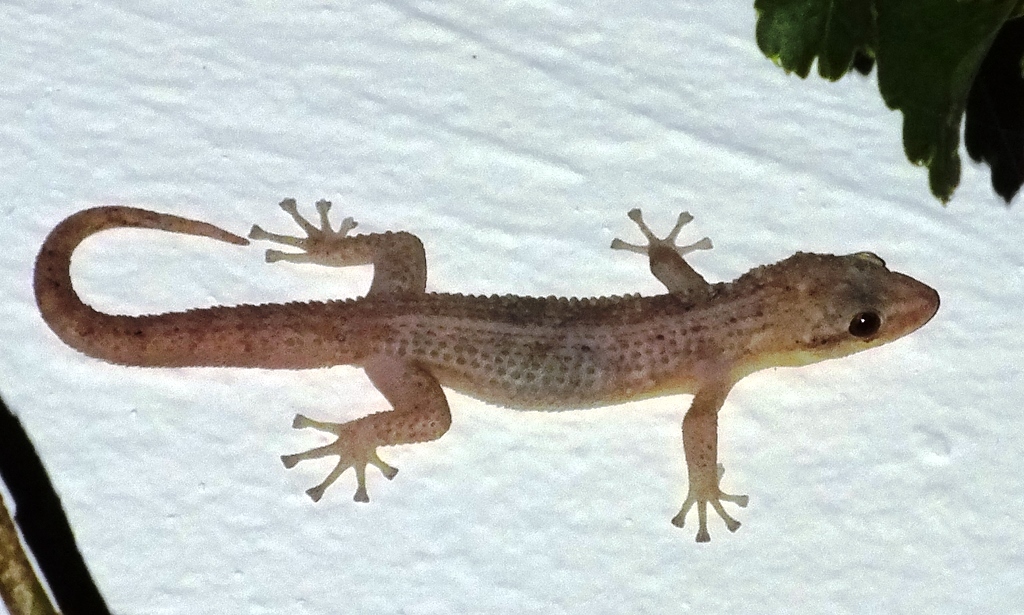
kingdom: Animalia
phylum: Chordata
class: Squamata
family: Phyllodactylidae
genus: Phyllodactylus
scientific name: Phyllodactylus insularis
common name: Belize leaf-toed gecko
